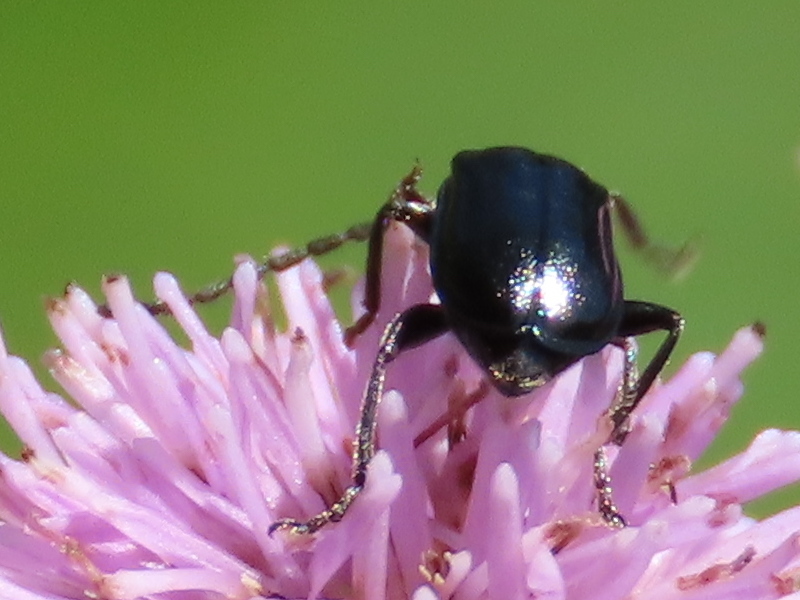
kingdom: Animalia
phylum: Arthropoda
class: Insecta
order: Coleoptera
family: Chrysomelidae
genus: Diabrotica
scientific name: Diabrotica cristata
